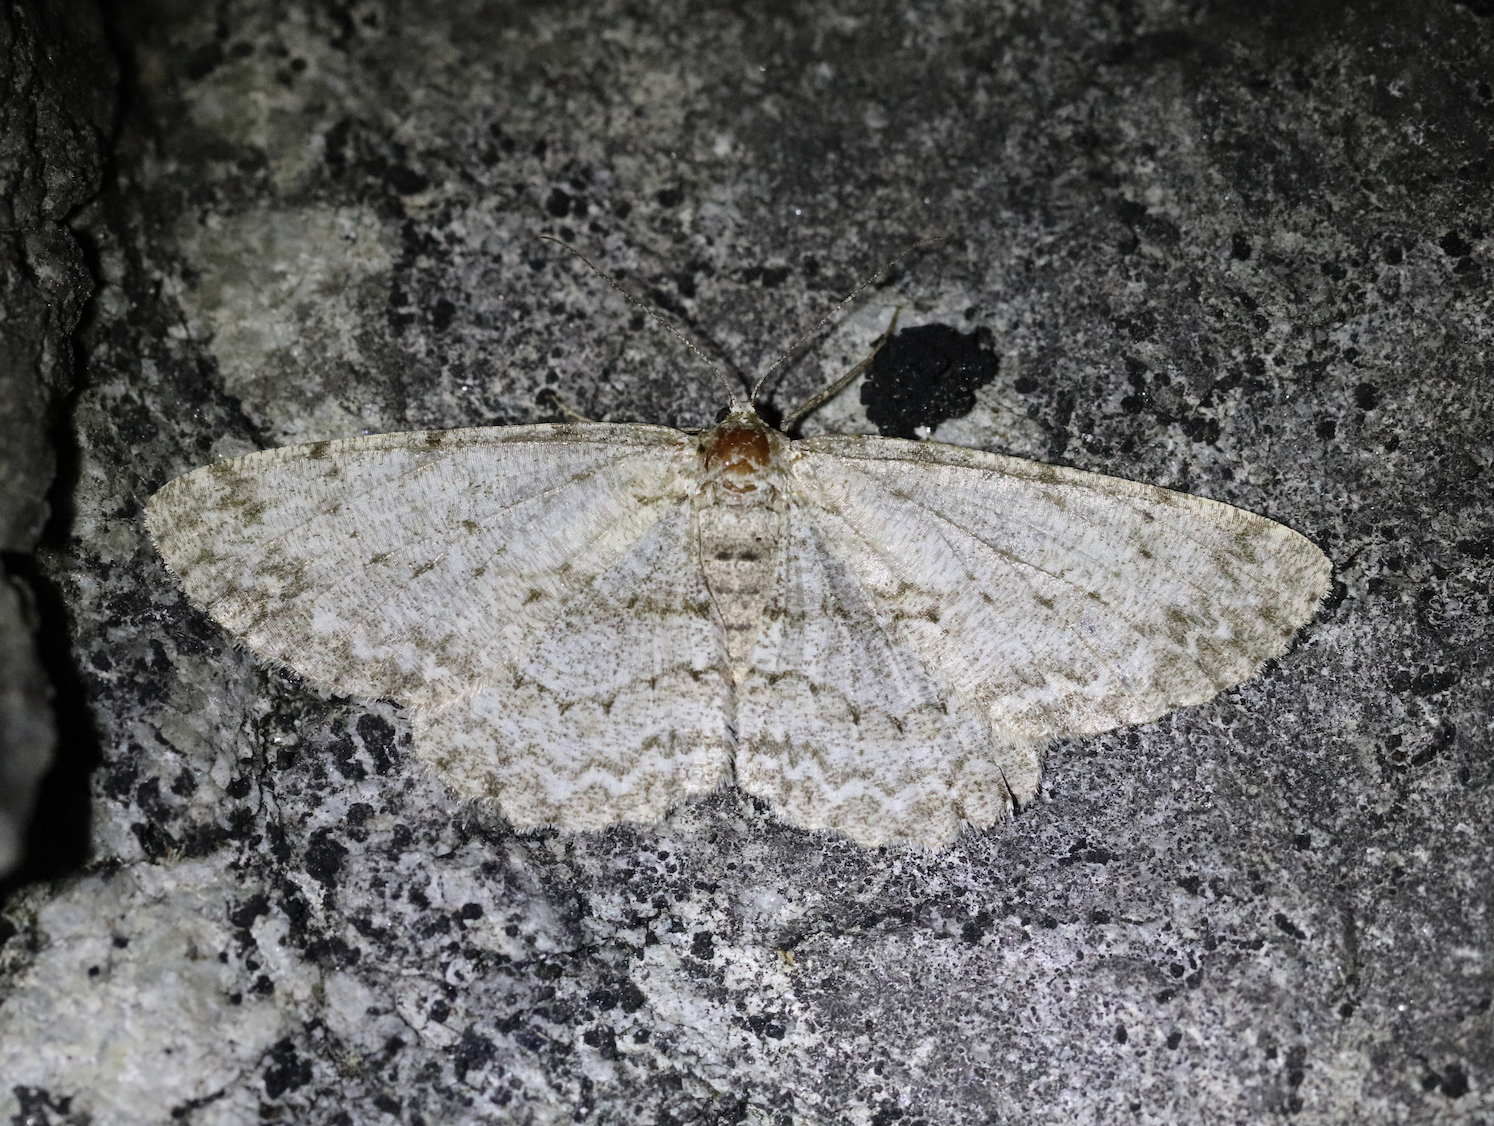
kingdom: Animalia
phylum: Arthropoda
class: Insecta
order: Lepidoptera
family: Geometridae
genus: Hypomecis
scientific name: Hypomecis punctinalis
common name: Pale oak beauty
